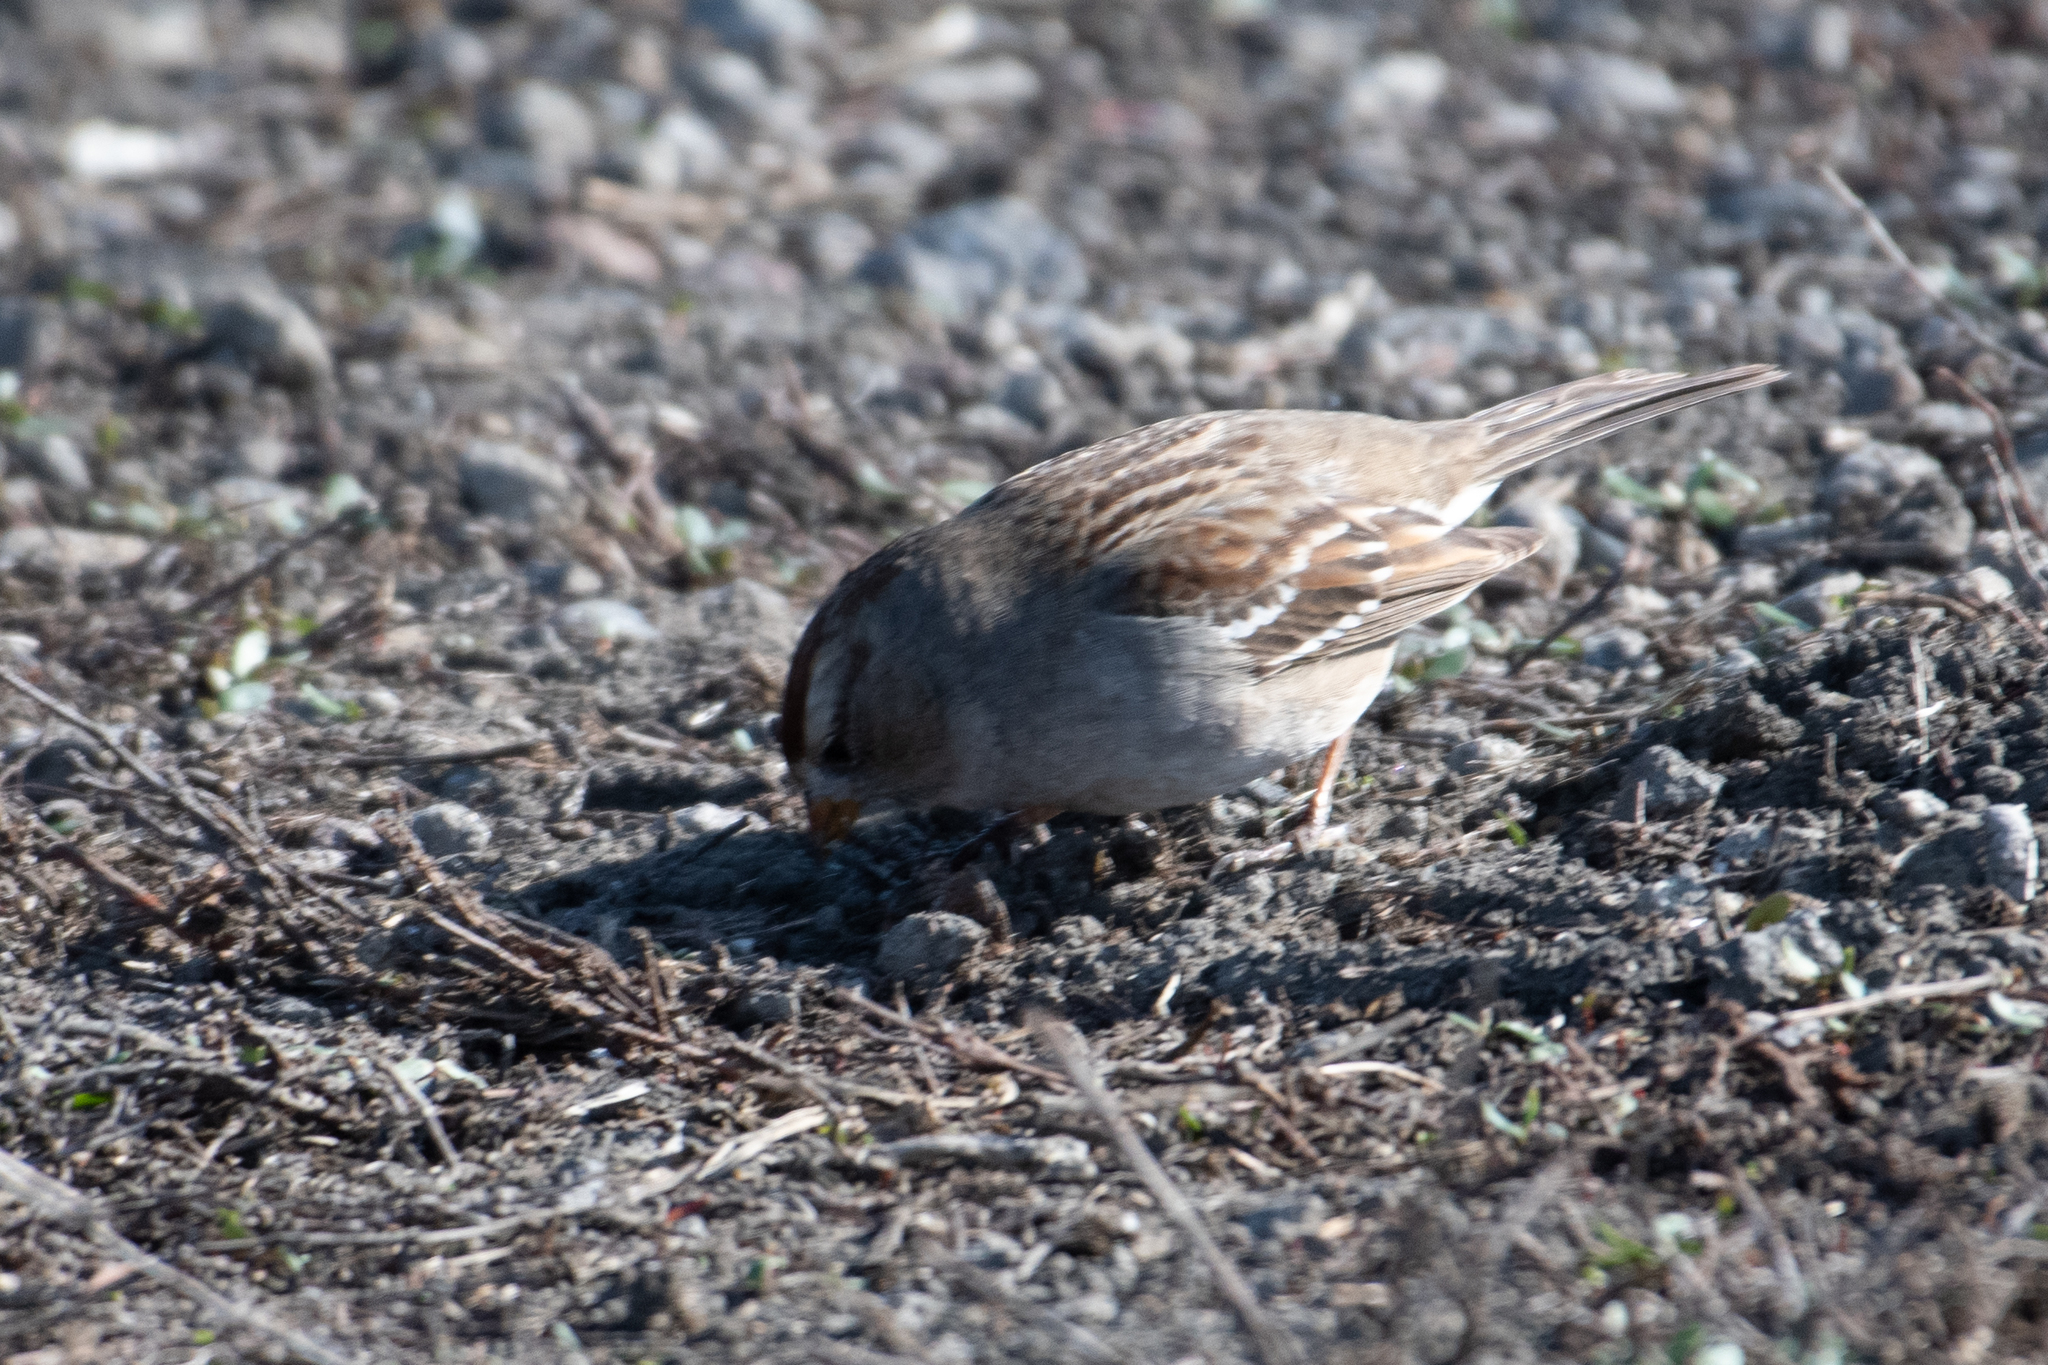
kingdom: Animalia
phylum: Chordata
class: Aves
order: Passeriformes
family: Passerellidae
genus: Zonotrichia
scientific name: Zonotrichia leucophrys
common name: White-crowned sparrow
